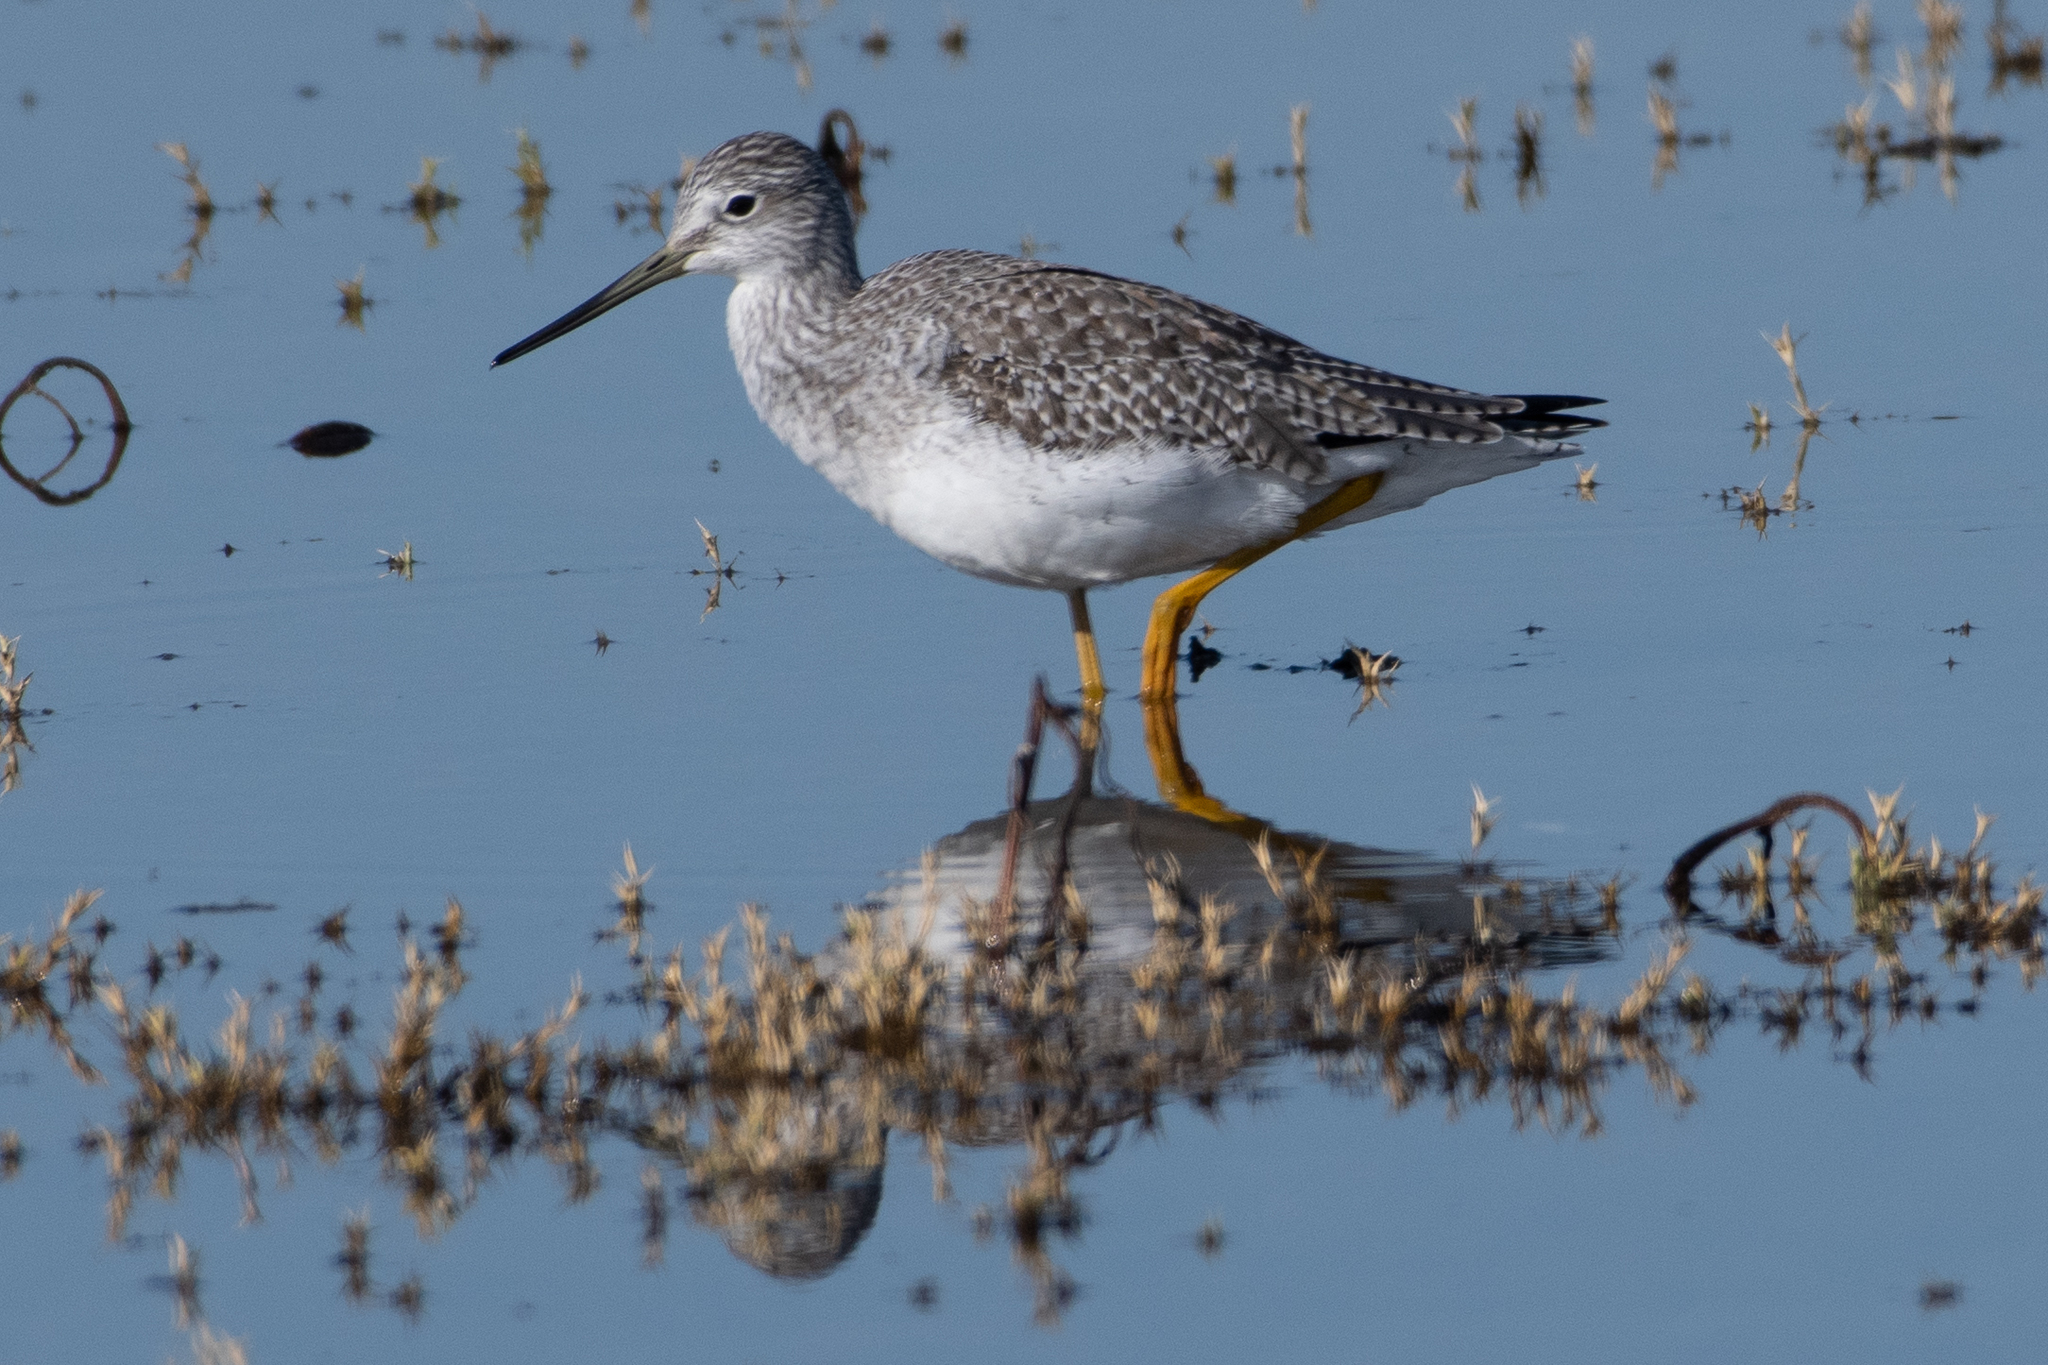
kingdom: Animalia
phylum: Chordata
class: Aves
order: Charadriiformes
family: Scolopacidae
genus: Tringa
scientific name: Tringa melanoleuca
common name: Greater yellowlegs
